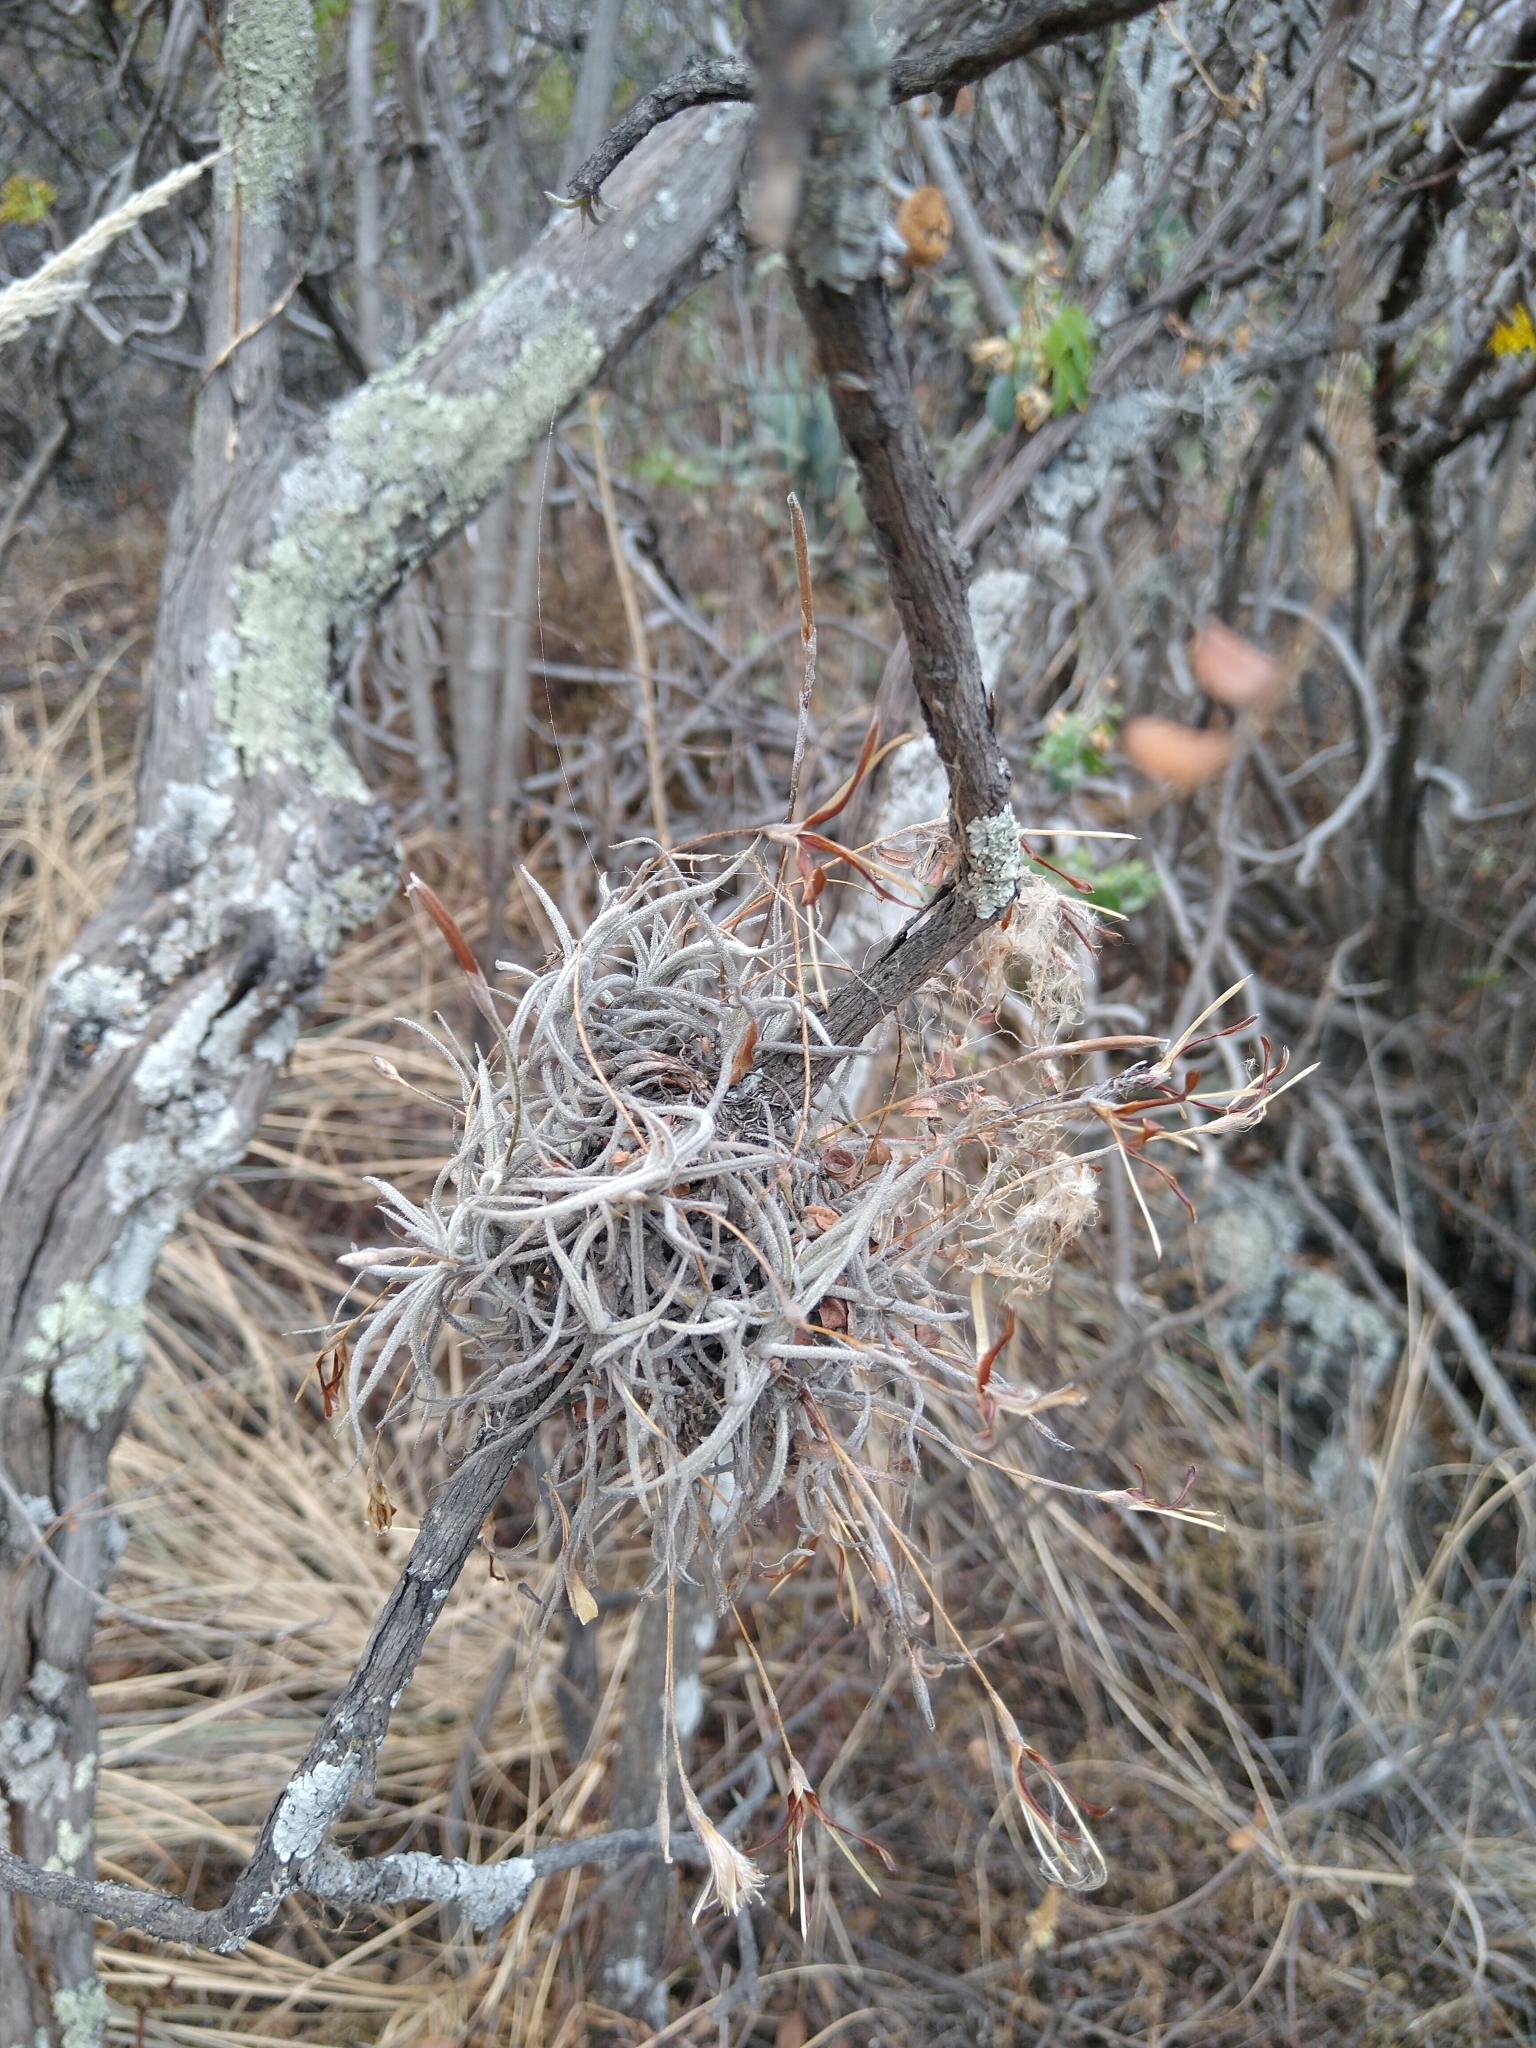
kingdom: Plantae
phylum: Tracheophyta
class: Liliopsida
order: Poales
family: Bromeliaceae
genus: Tillandsia
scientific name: Tillandsia recurvata
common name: Small ballmoss
